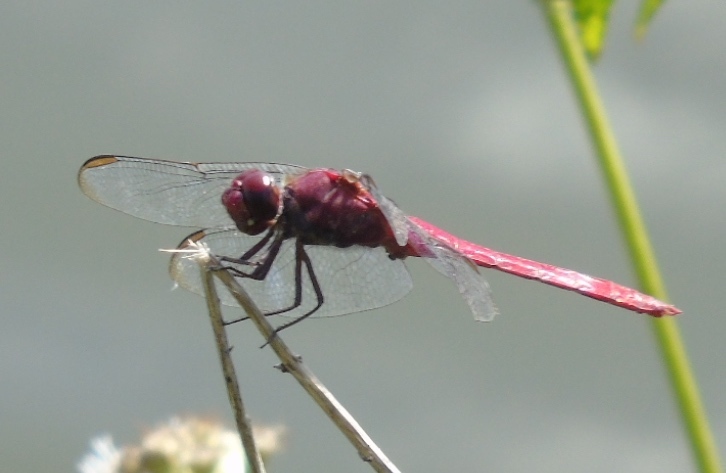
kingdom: Animalia
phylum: Arthropoda
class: Insecta
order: Odonata
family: Libellulidae
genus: Orthemis
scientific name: Orthemis discolor
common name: Carmine skimmer
